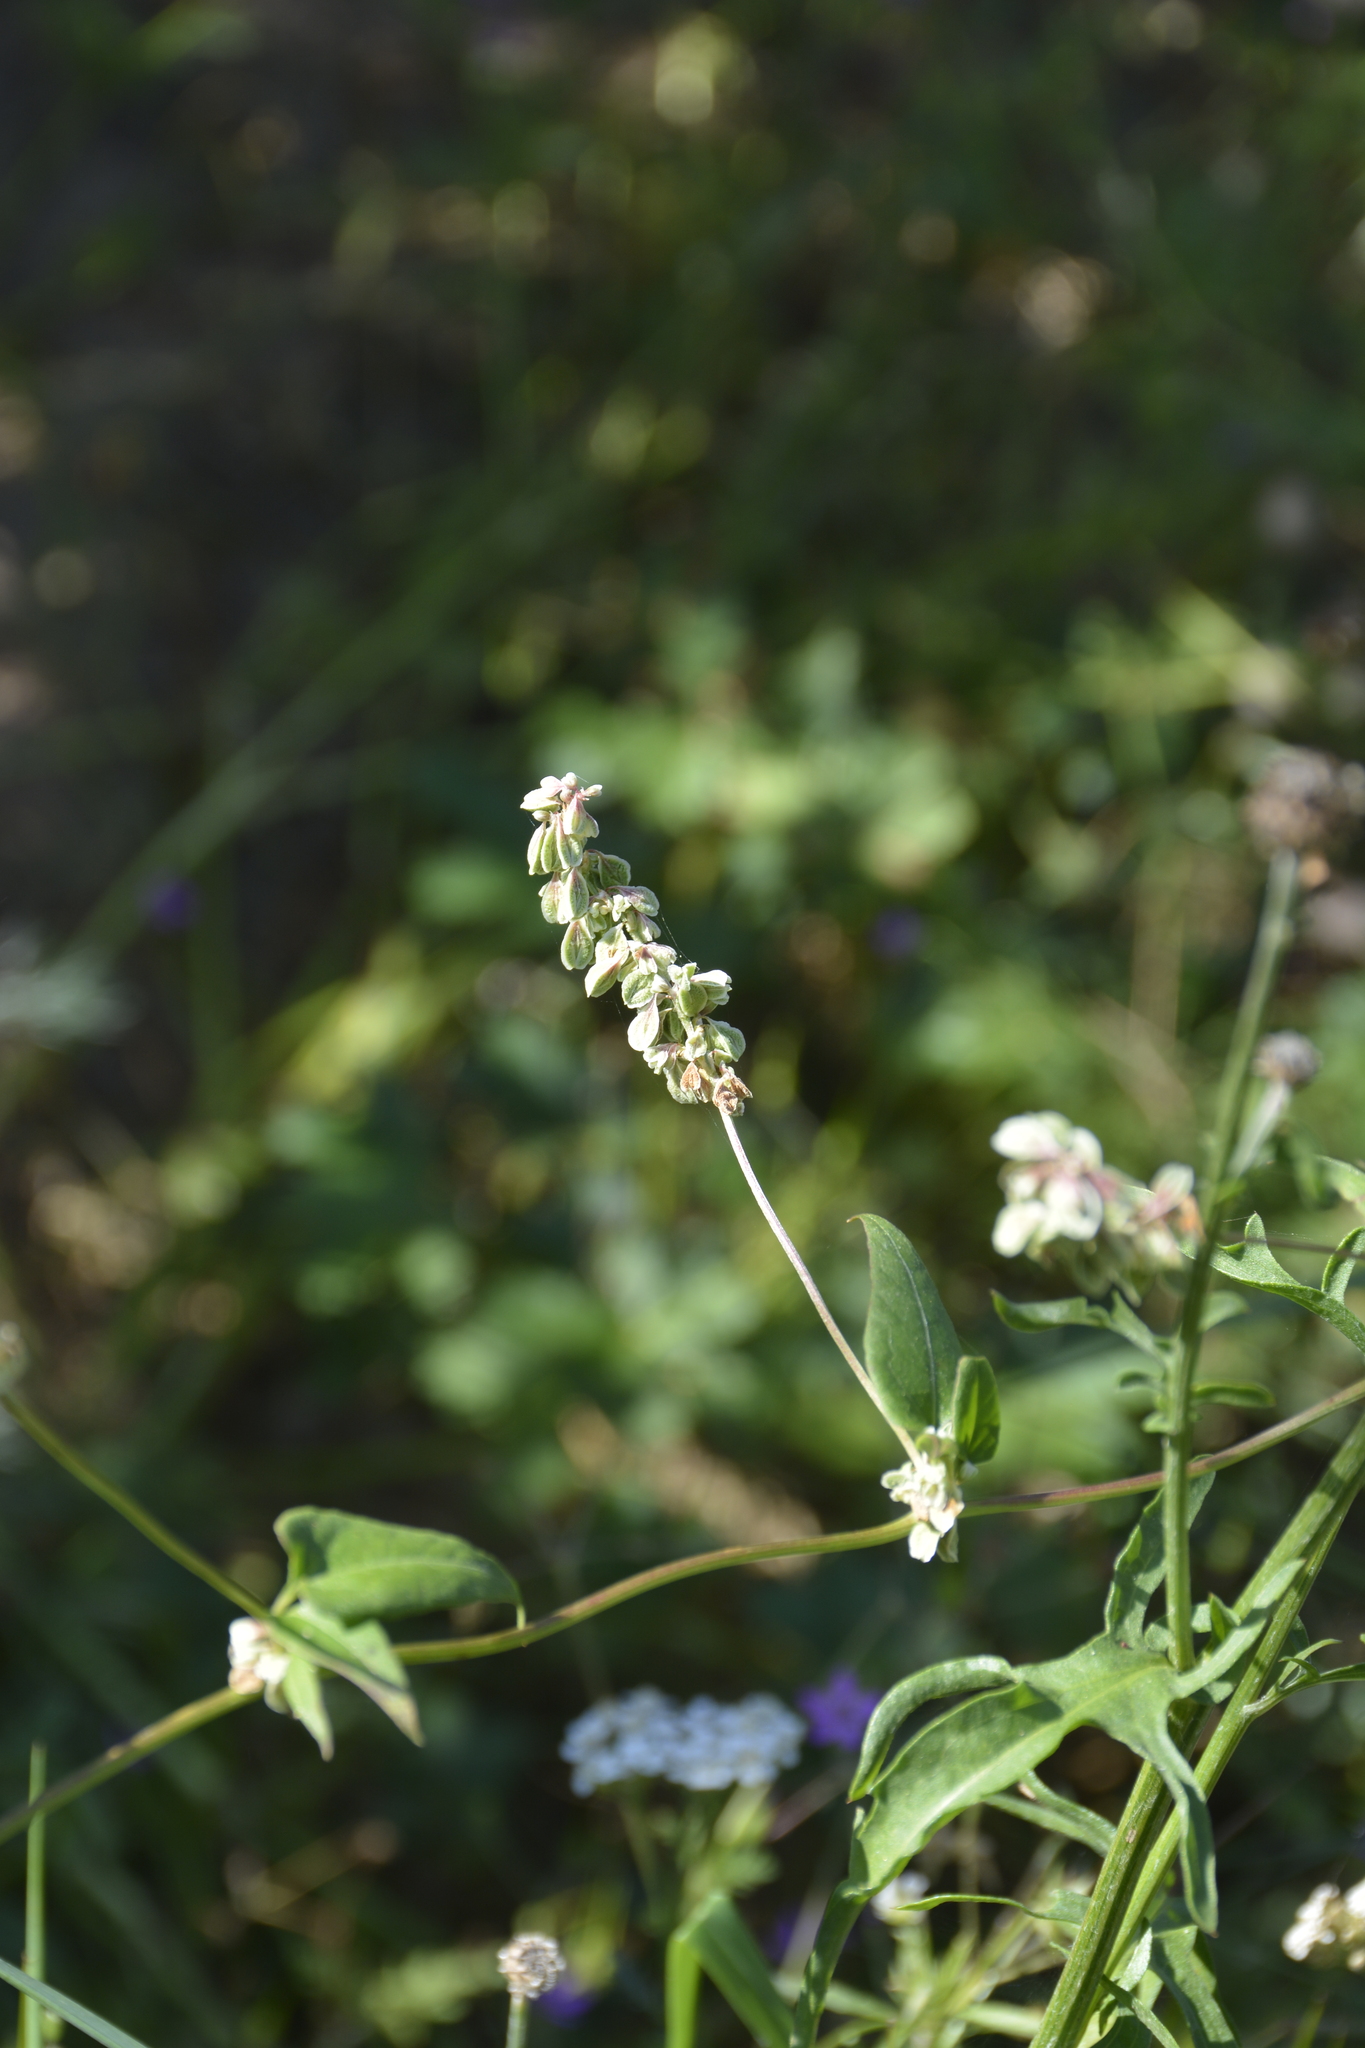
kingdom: Plantae
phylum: Tracheophyta
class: Magnoliopsida
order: Caryophyllales
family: Polygonaceae
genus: Fallopia
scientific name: Fallopia dumetorum
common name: Copse-bindweed
